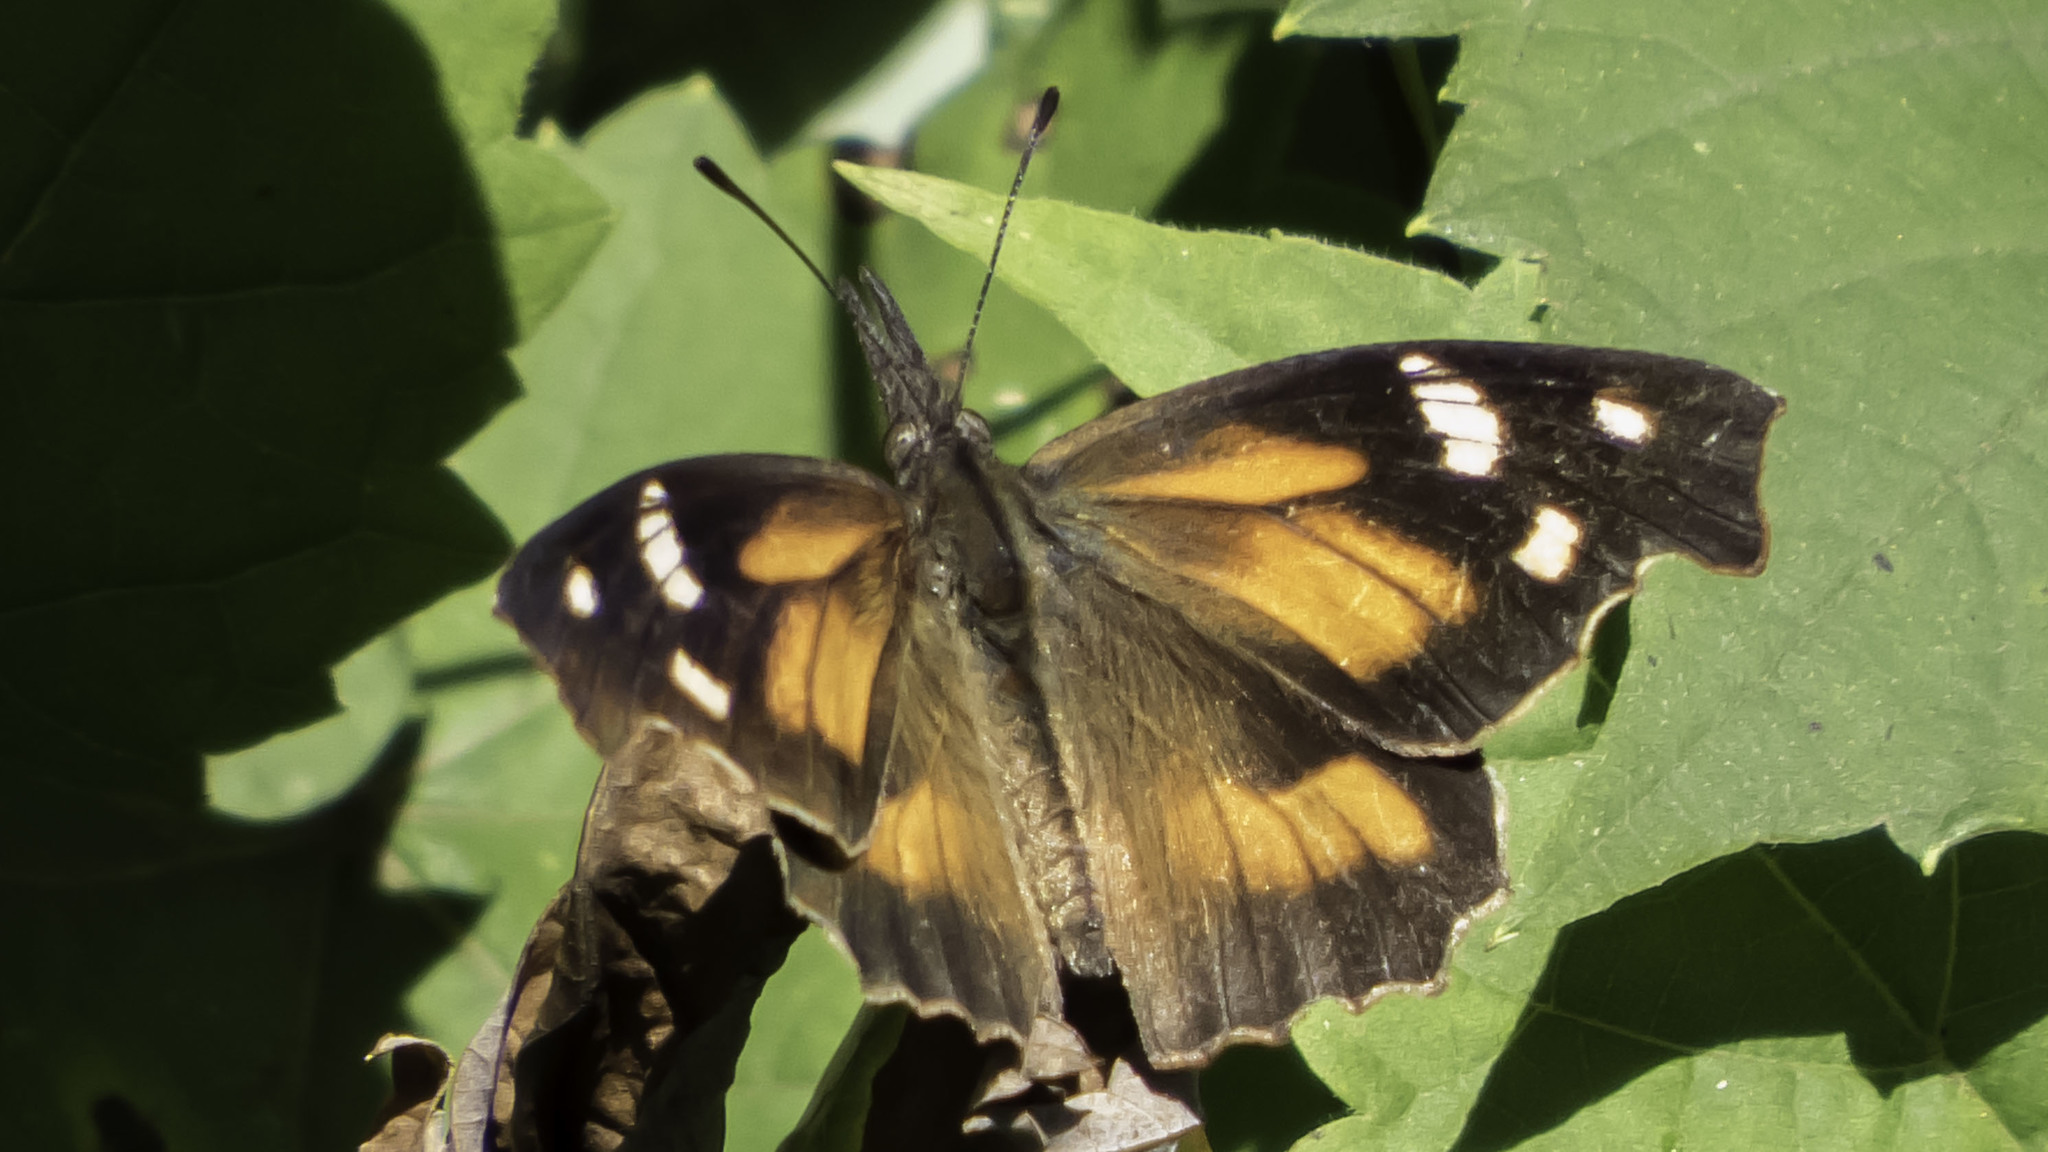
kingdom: Animalia
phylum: Arthropoda
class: Insecta
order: Lepidoptera
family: Nymphalidae
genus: Libytheana
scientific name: Libytheana carinenta
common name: American snout
